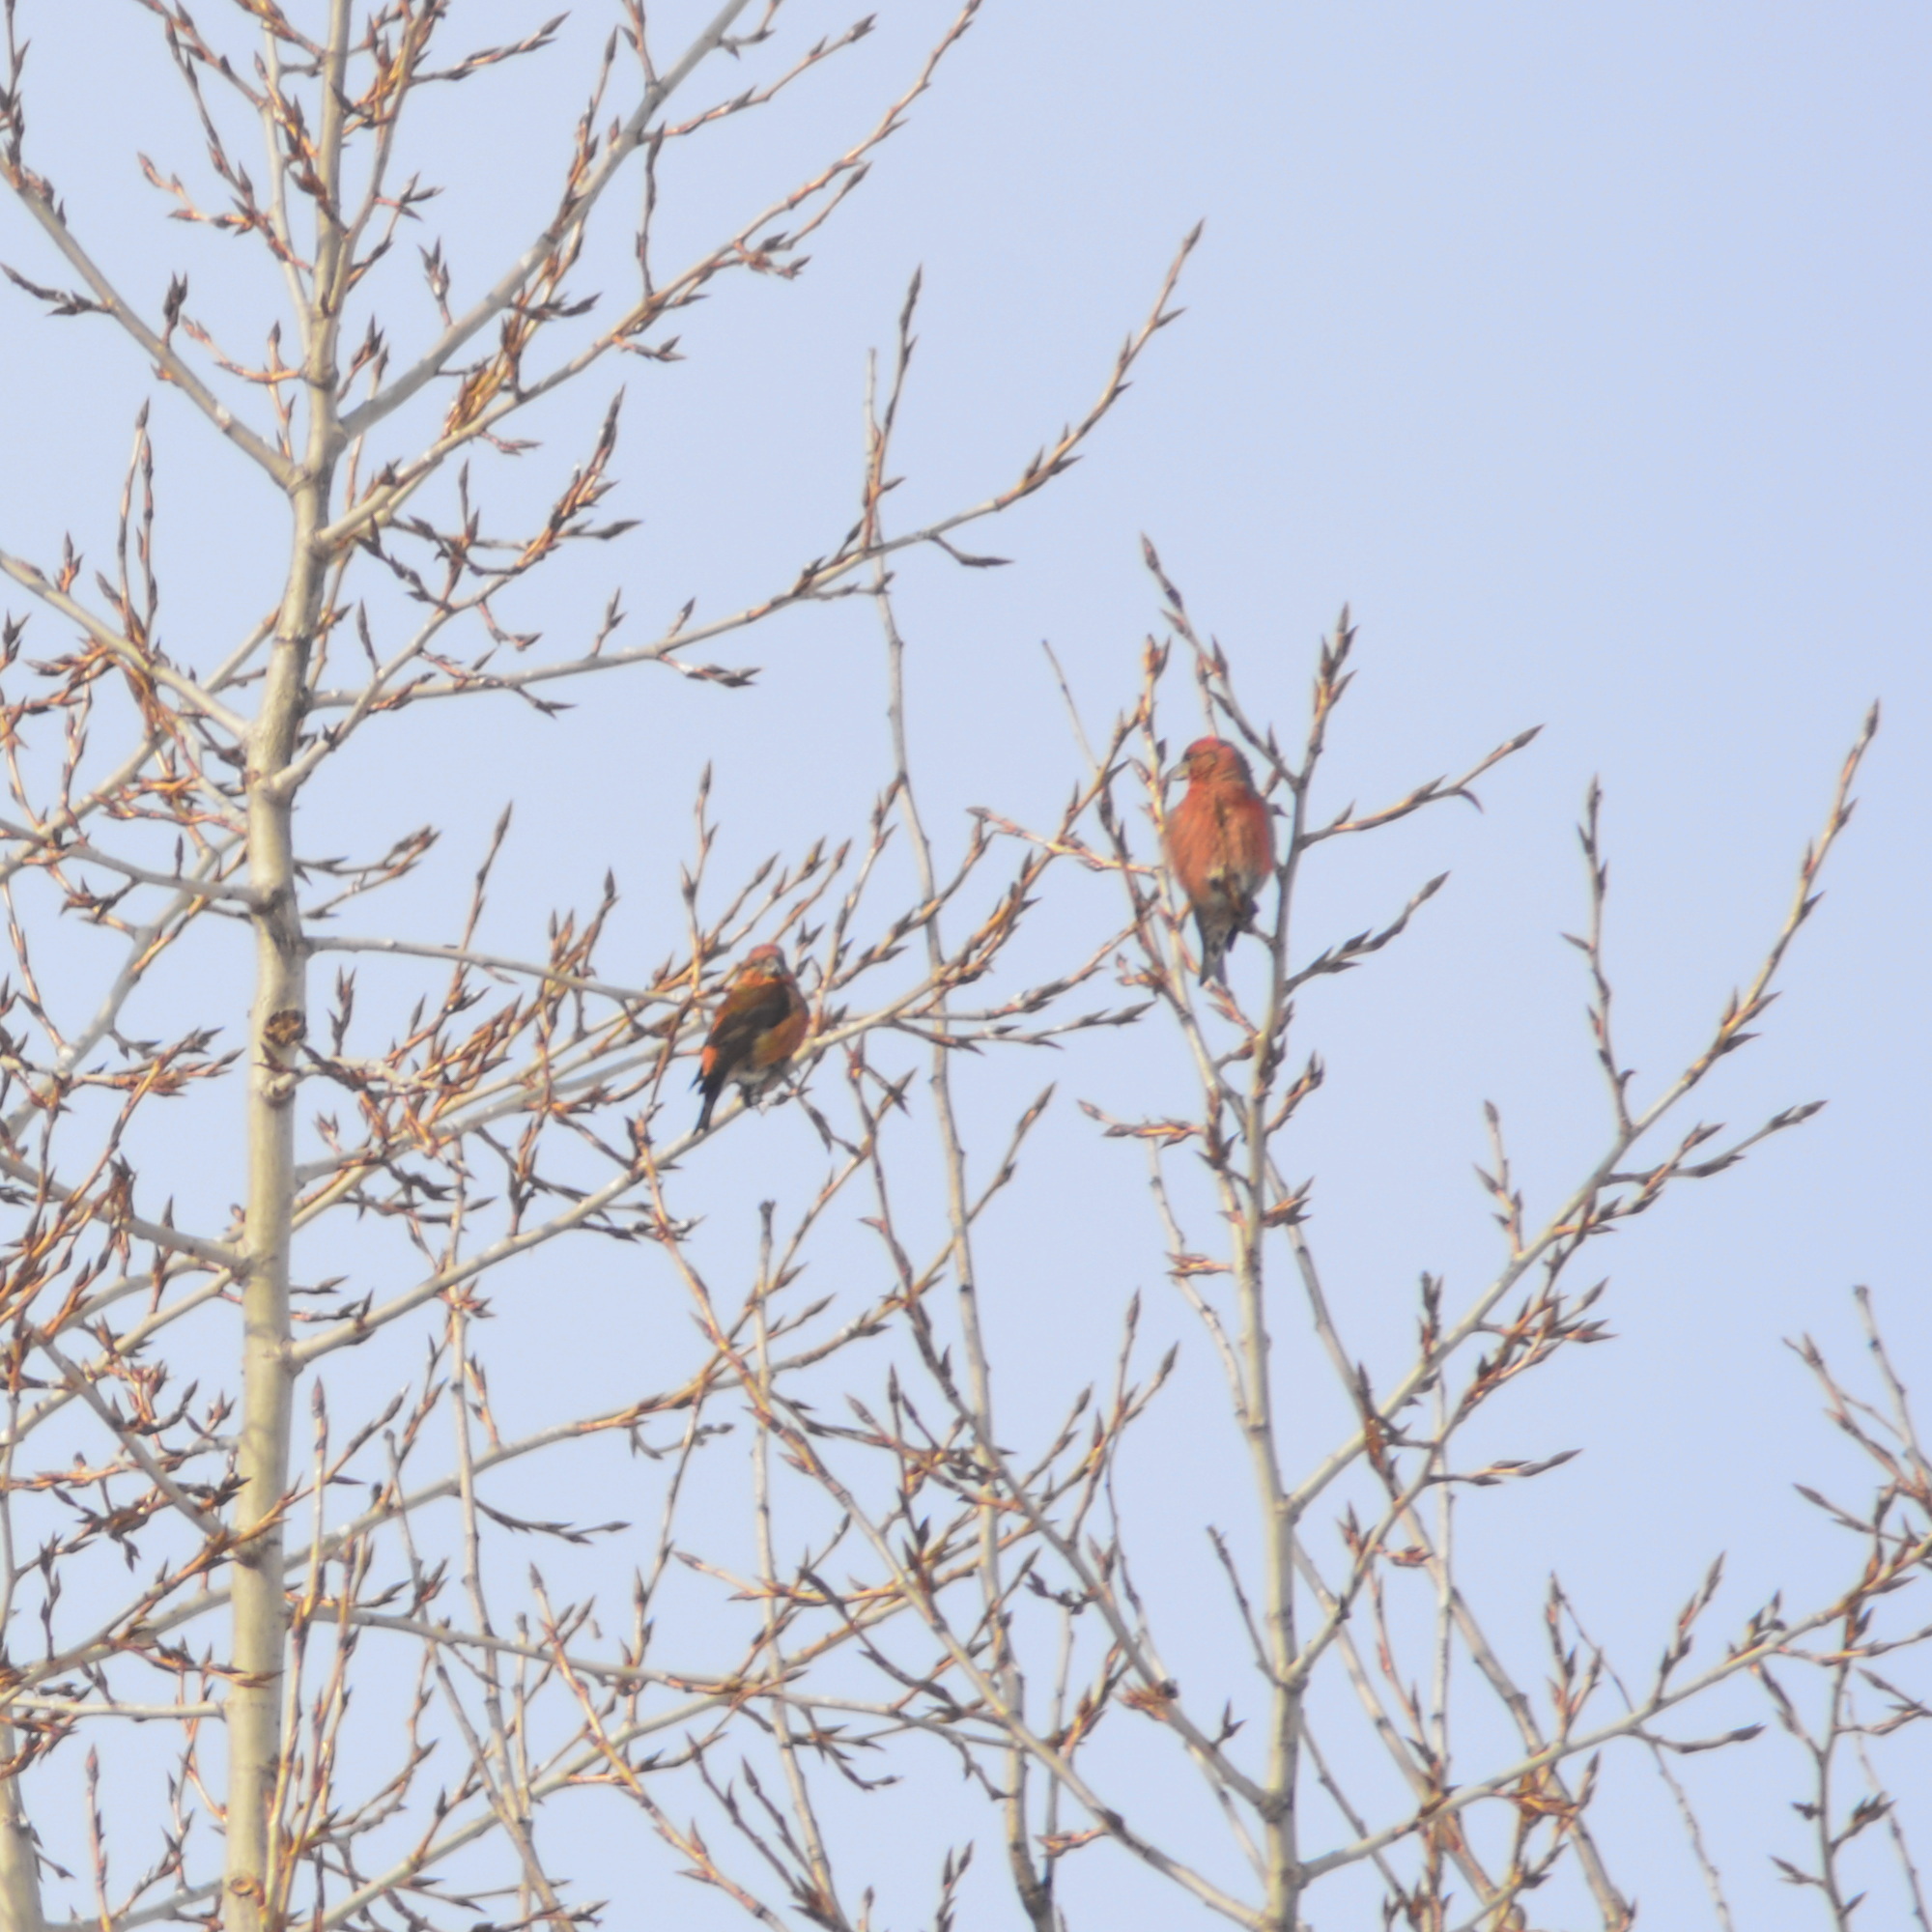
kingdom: Animalia
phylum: Chordata
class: Aves
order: Passeriformes
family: Fringillidae
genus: Loxia
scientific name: Loxia curvirostra
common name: Red crossbill
